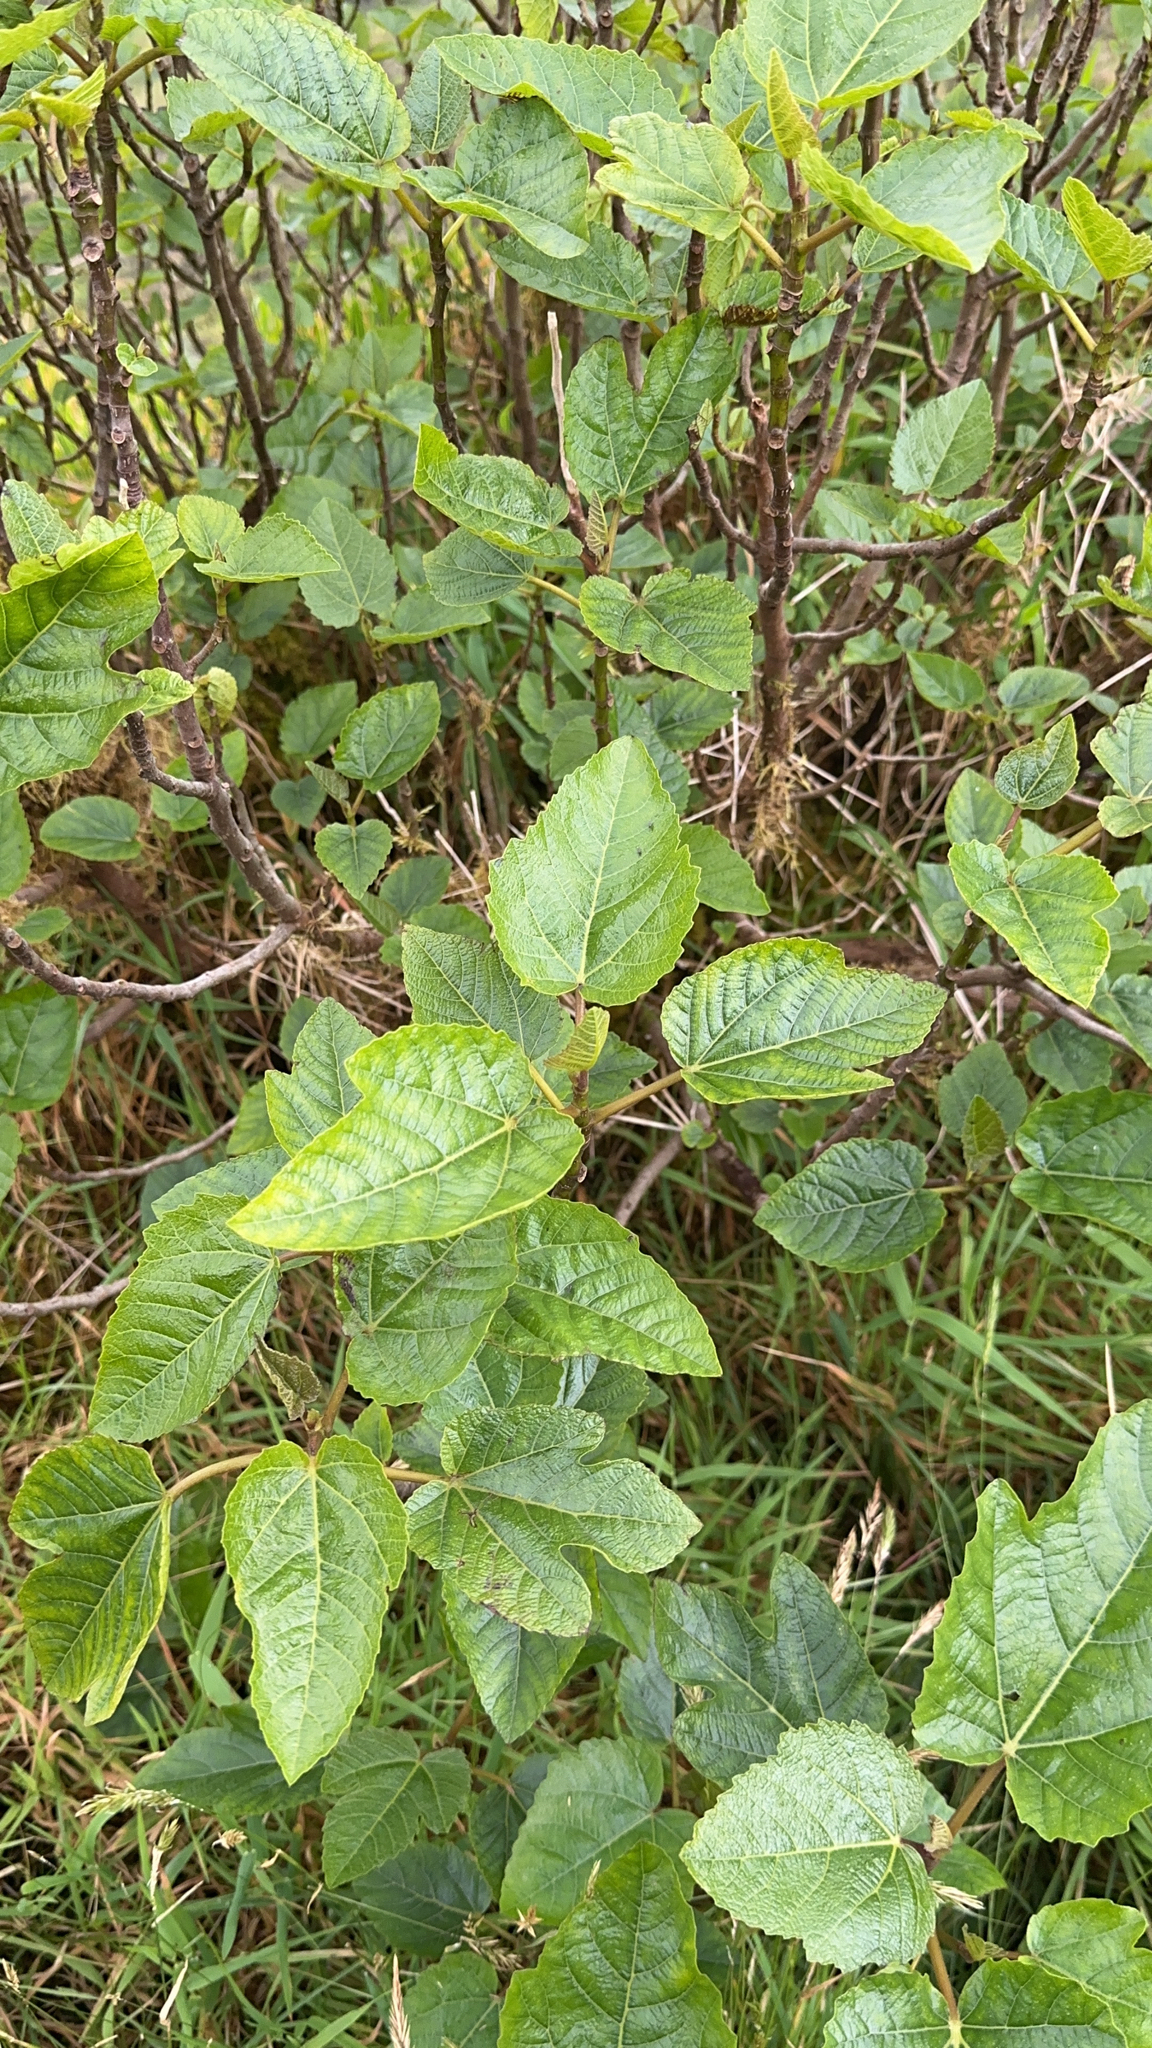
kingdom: Plantae
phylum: Tracheophyta
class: Magnoliopsida
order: Rosales
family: Moraceae
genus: Ficus
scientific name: Ficus carica
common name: Fig
